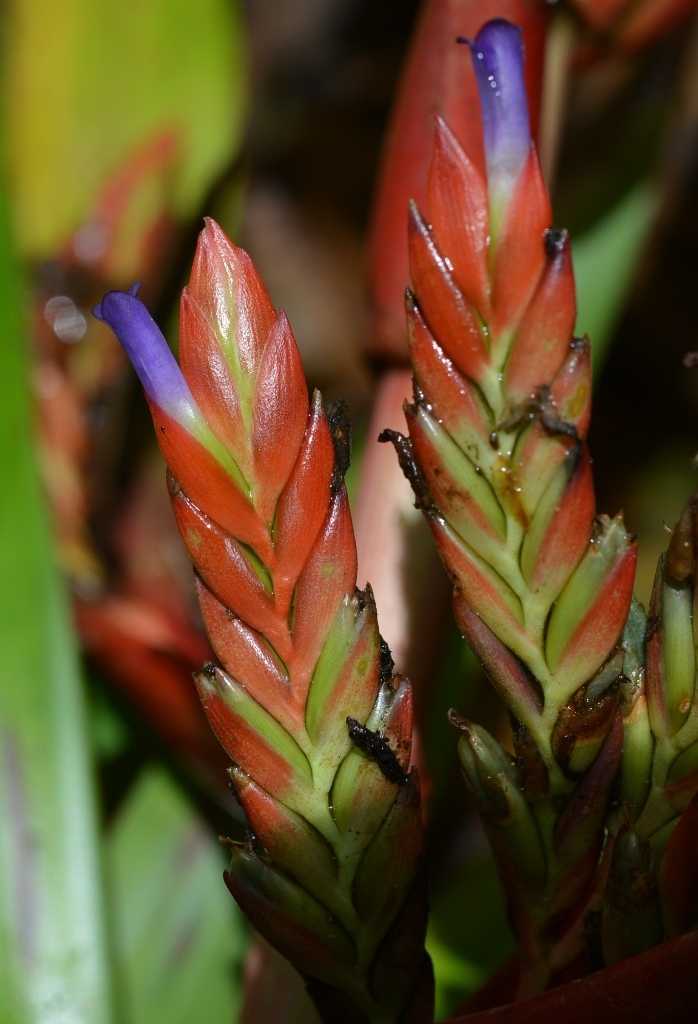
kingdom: Plantae
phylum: Tracheophyta
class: Liliopsida
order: Poales
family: Bromeliaceae
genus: Tillandsia
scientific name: Tillandsia guatemalensis
